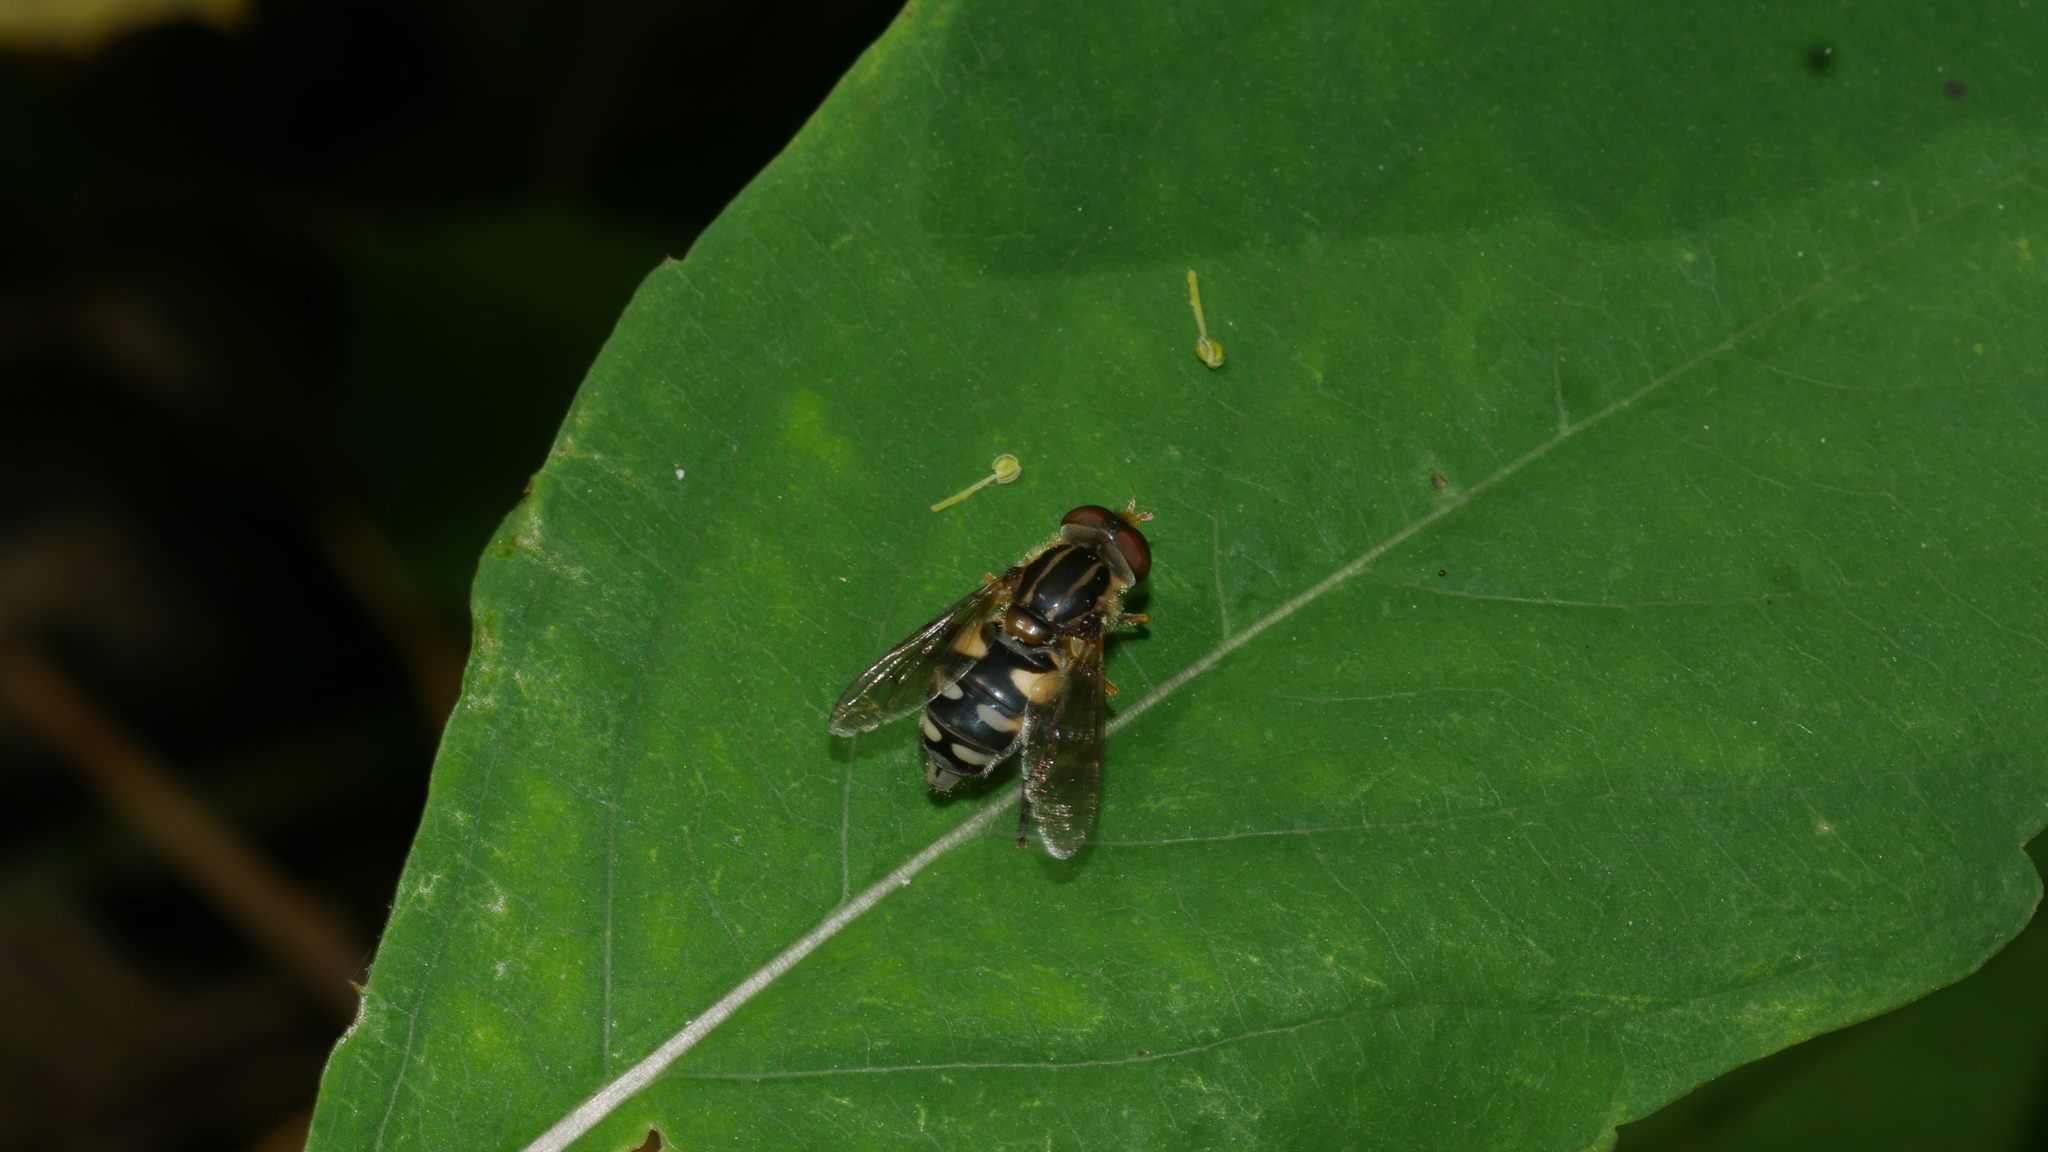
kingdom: Animalia
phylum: Arthropoda
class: Insecta
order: Diptera
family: Syrphidae
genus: Parhelophilus
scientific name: Parhelophilus flavifacies
